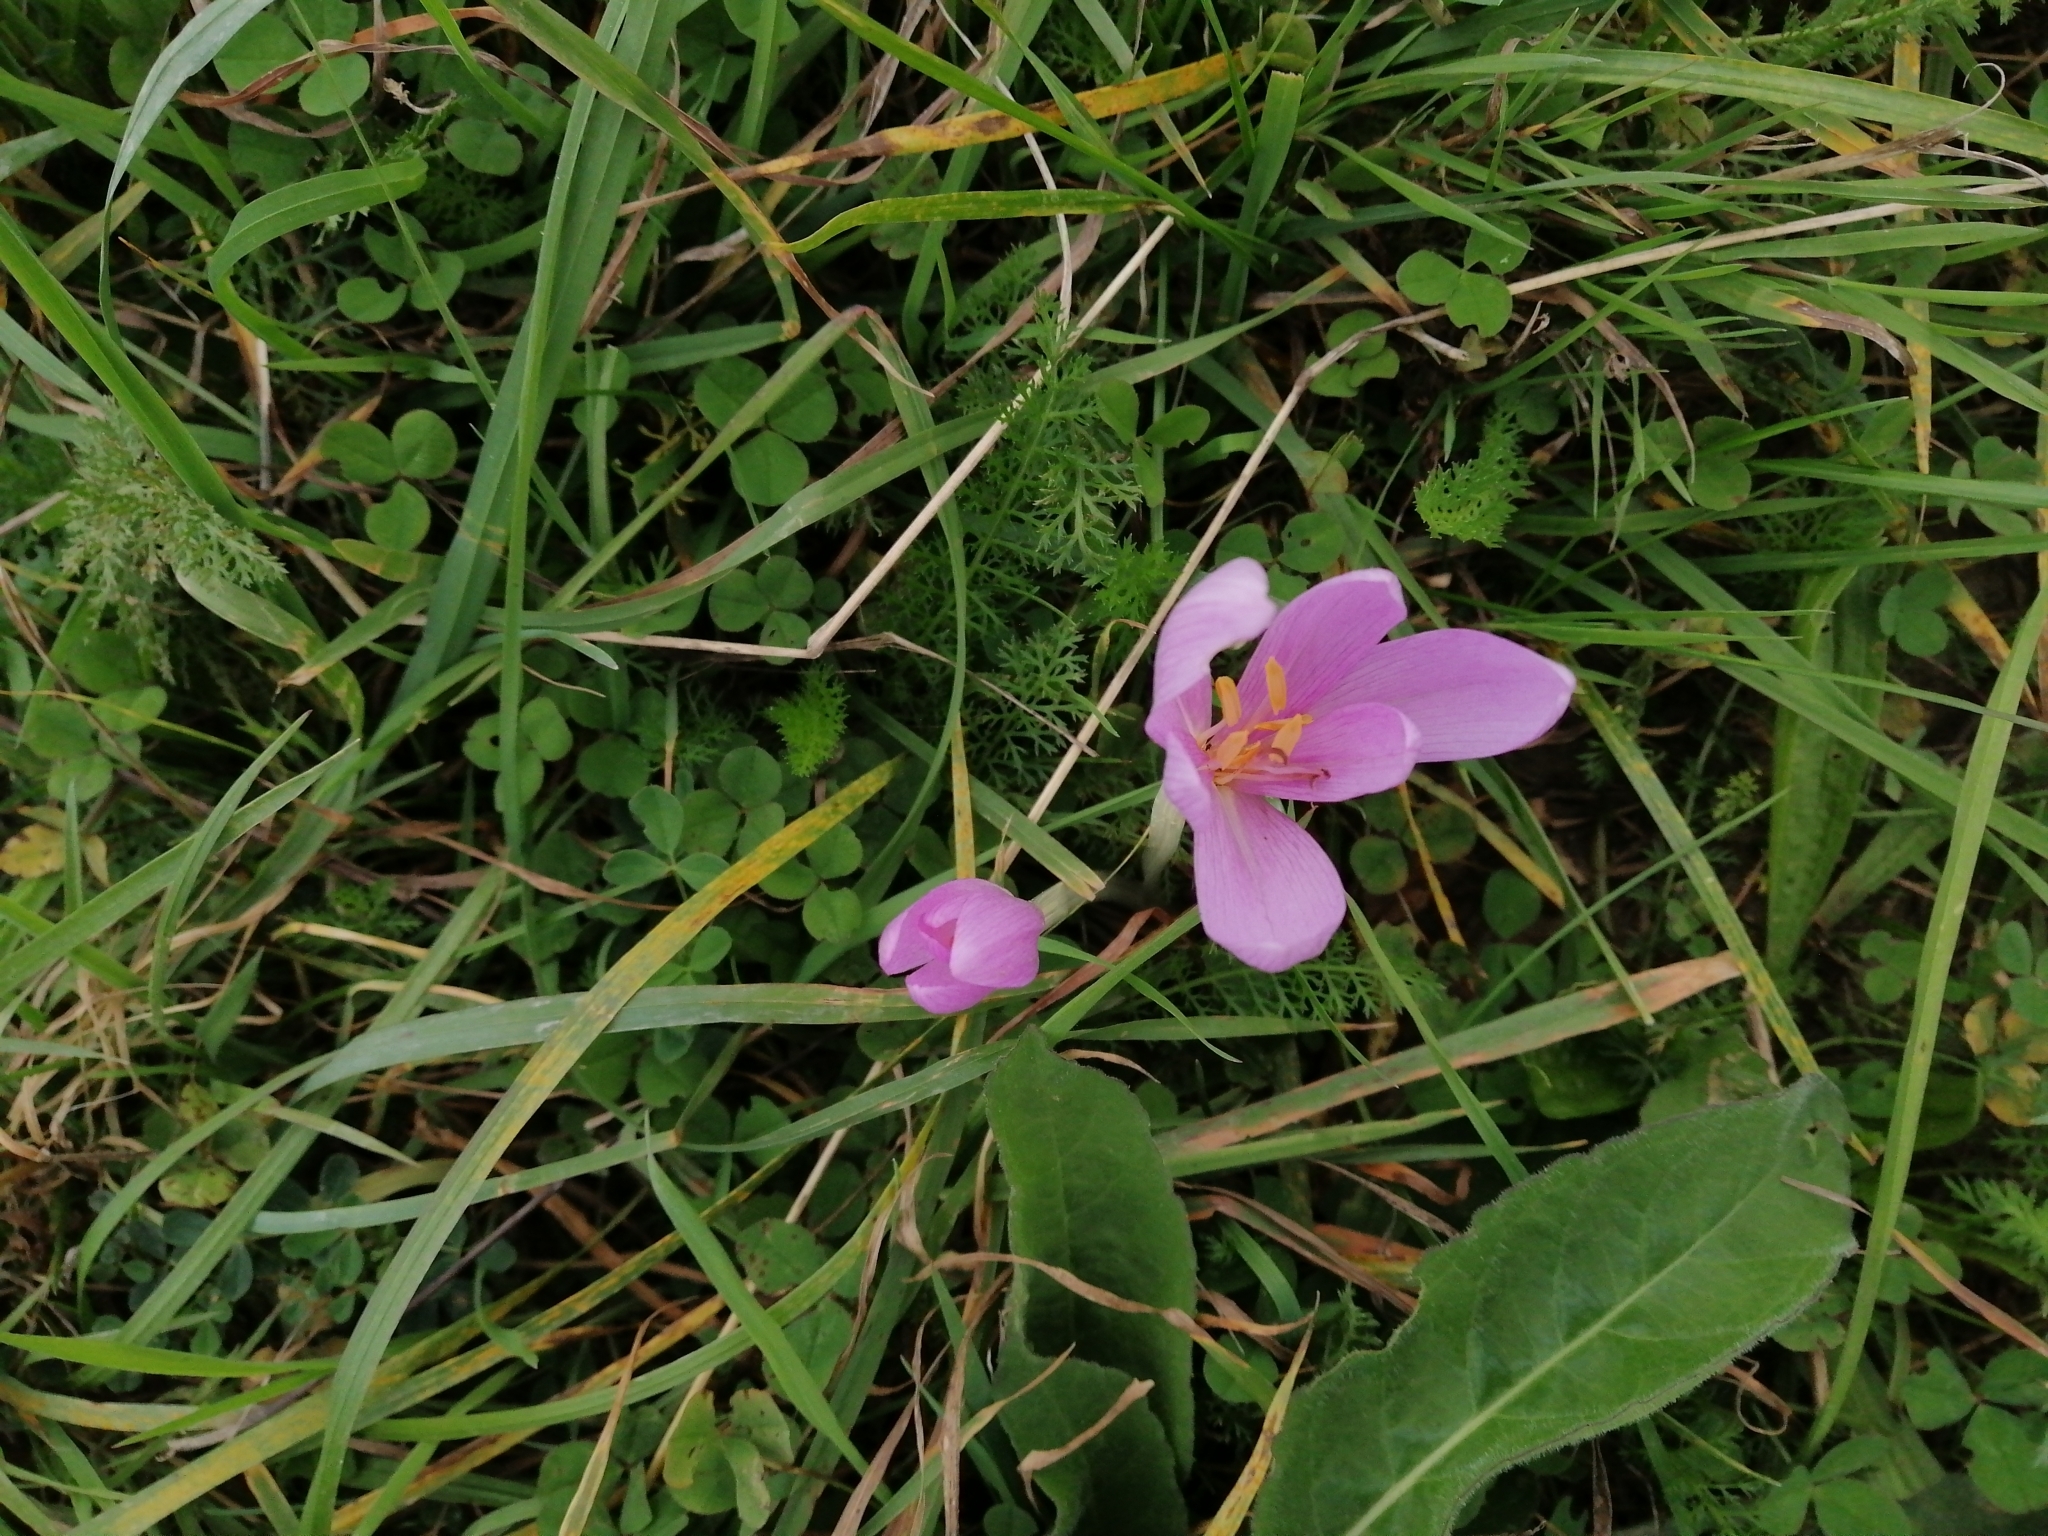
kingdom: Plantae
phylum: Tracheophyta
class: Liliopsida
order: Liliales
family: Colchicaceae
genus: Colchicum
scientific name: Colchicum autumnale
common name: Autumn crocus
